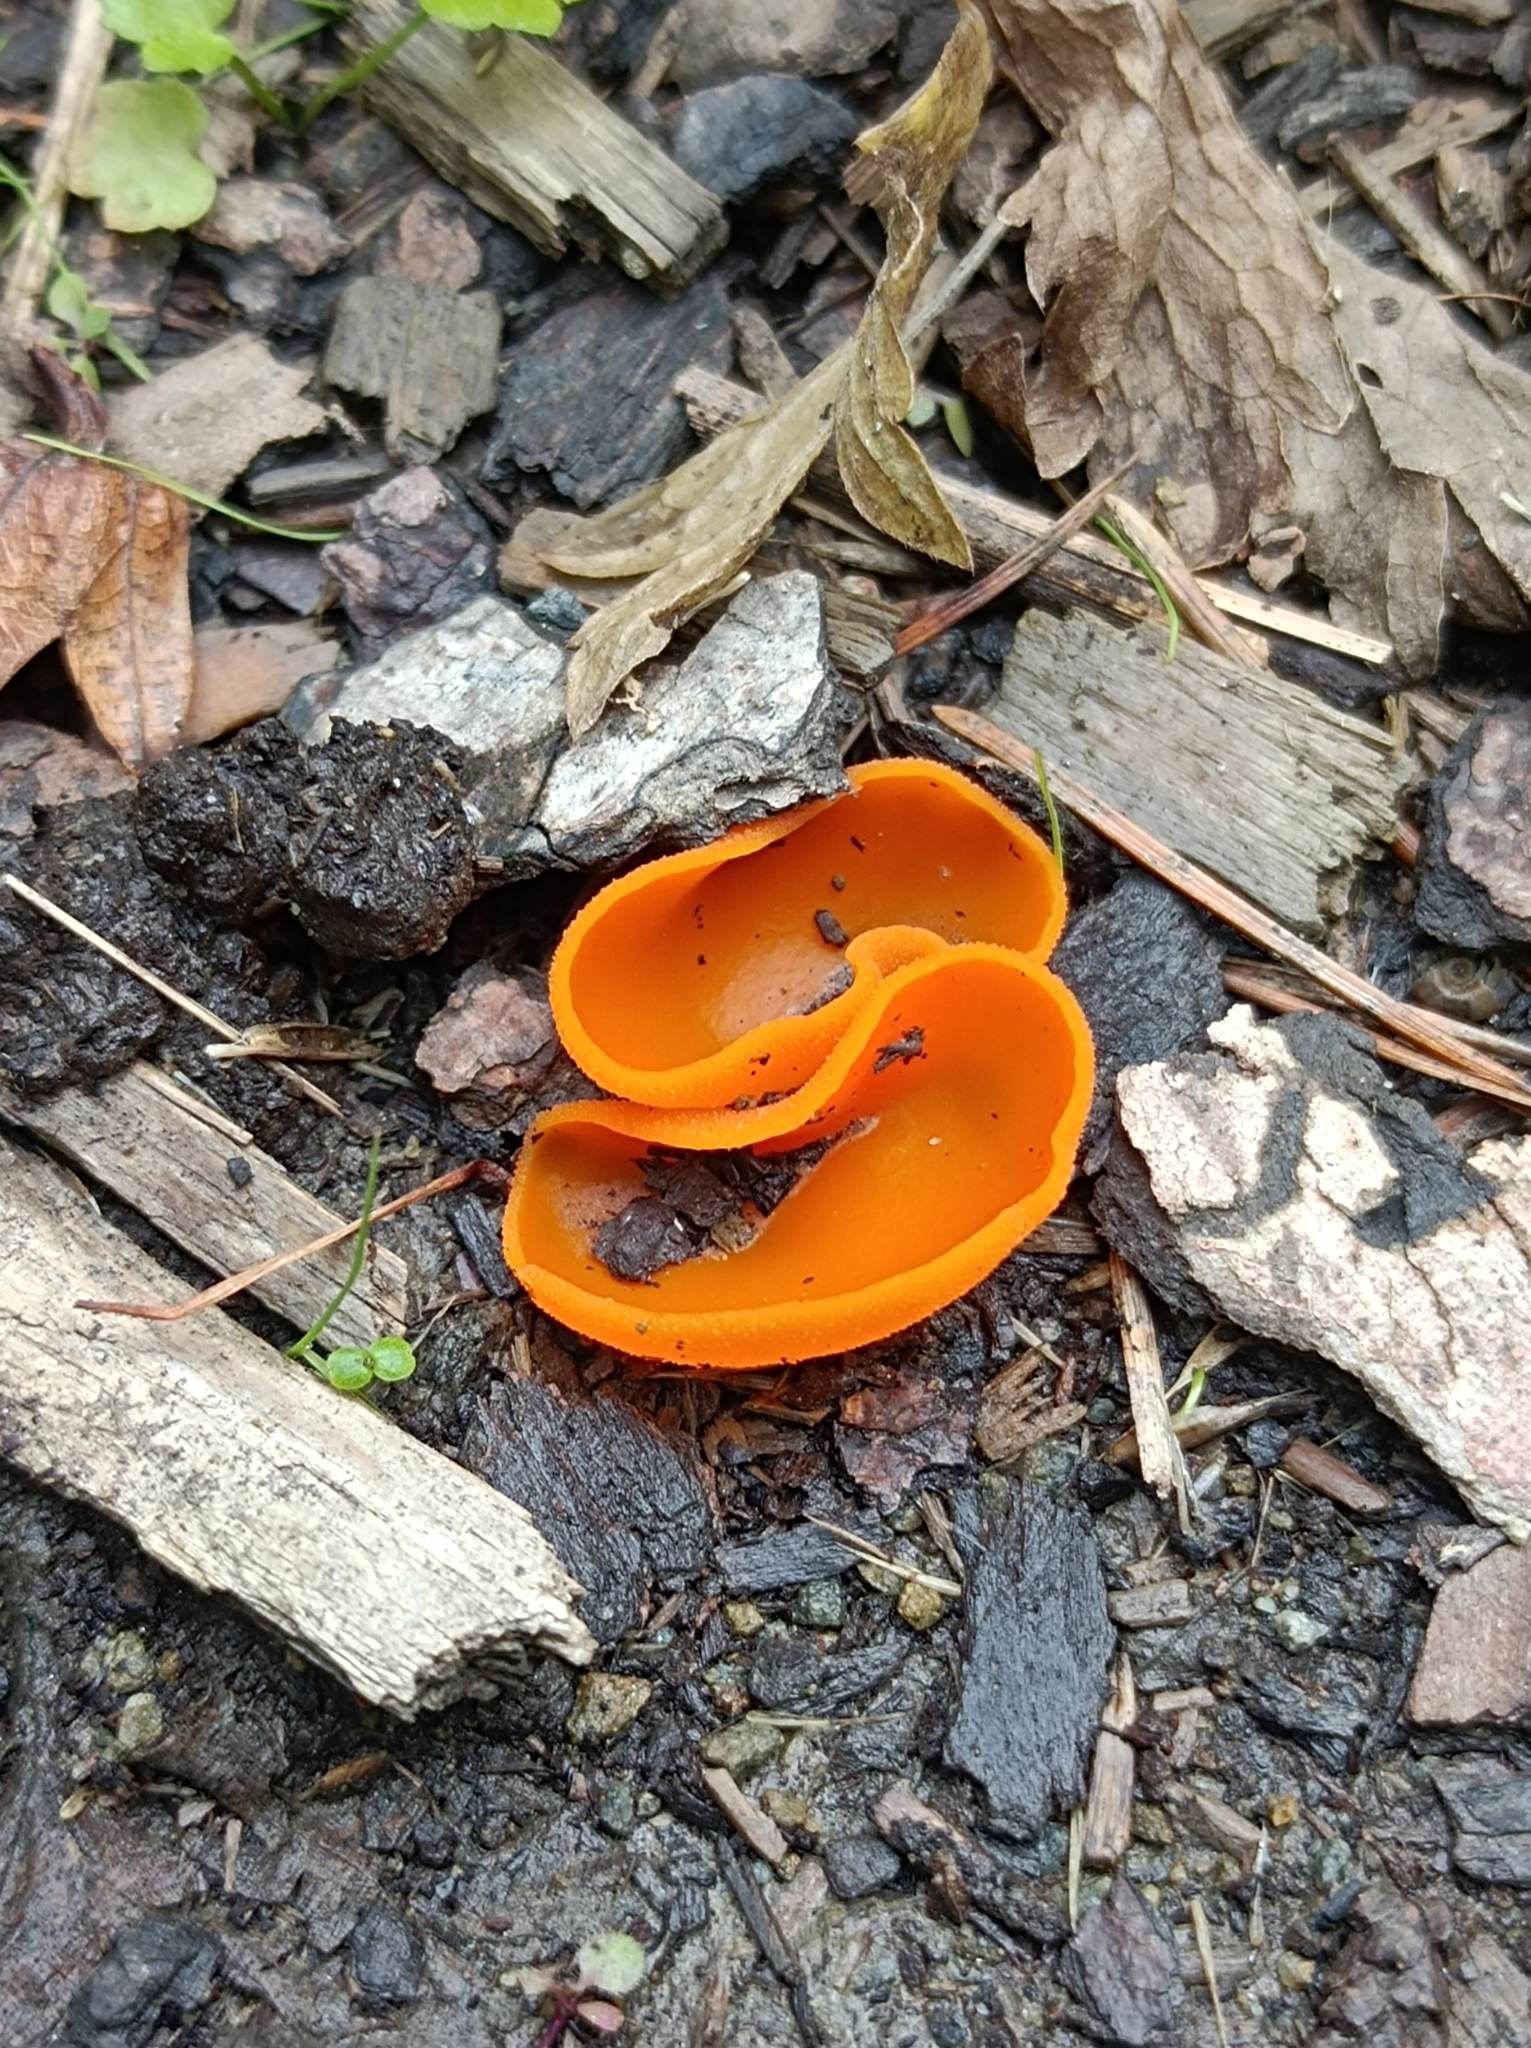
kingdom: Fungi
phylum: Ascomycota
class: Pezizomycetes
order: Pezizales
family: Pyronemataceae
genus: Aleuria
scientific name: Aleuria aurantia
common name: Orange peel fungus
